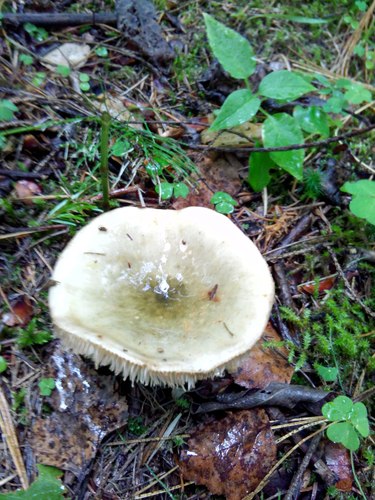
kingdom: Fungi
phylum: Basidiomycota
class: Agaricomycetes
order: Russulales
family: Russulaceae
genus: Russula
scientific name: Russula
